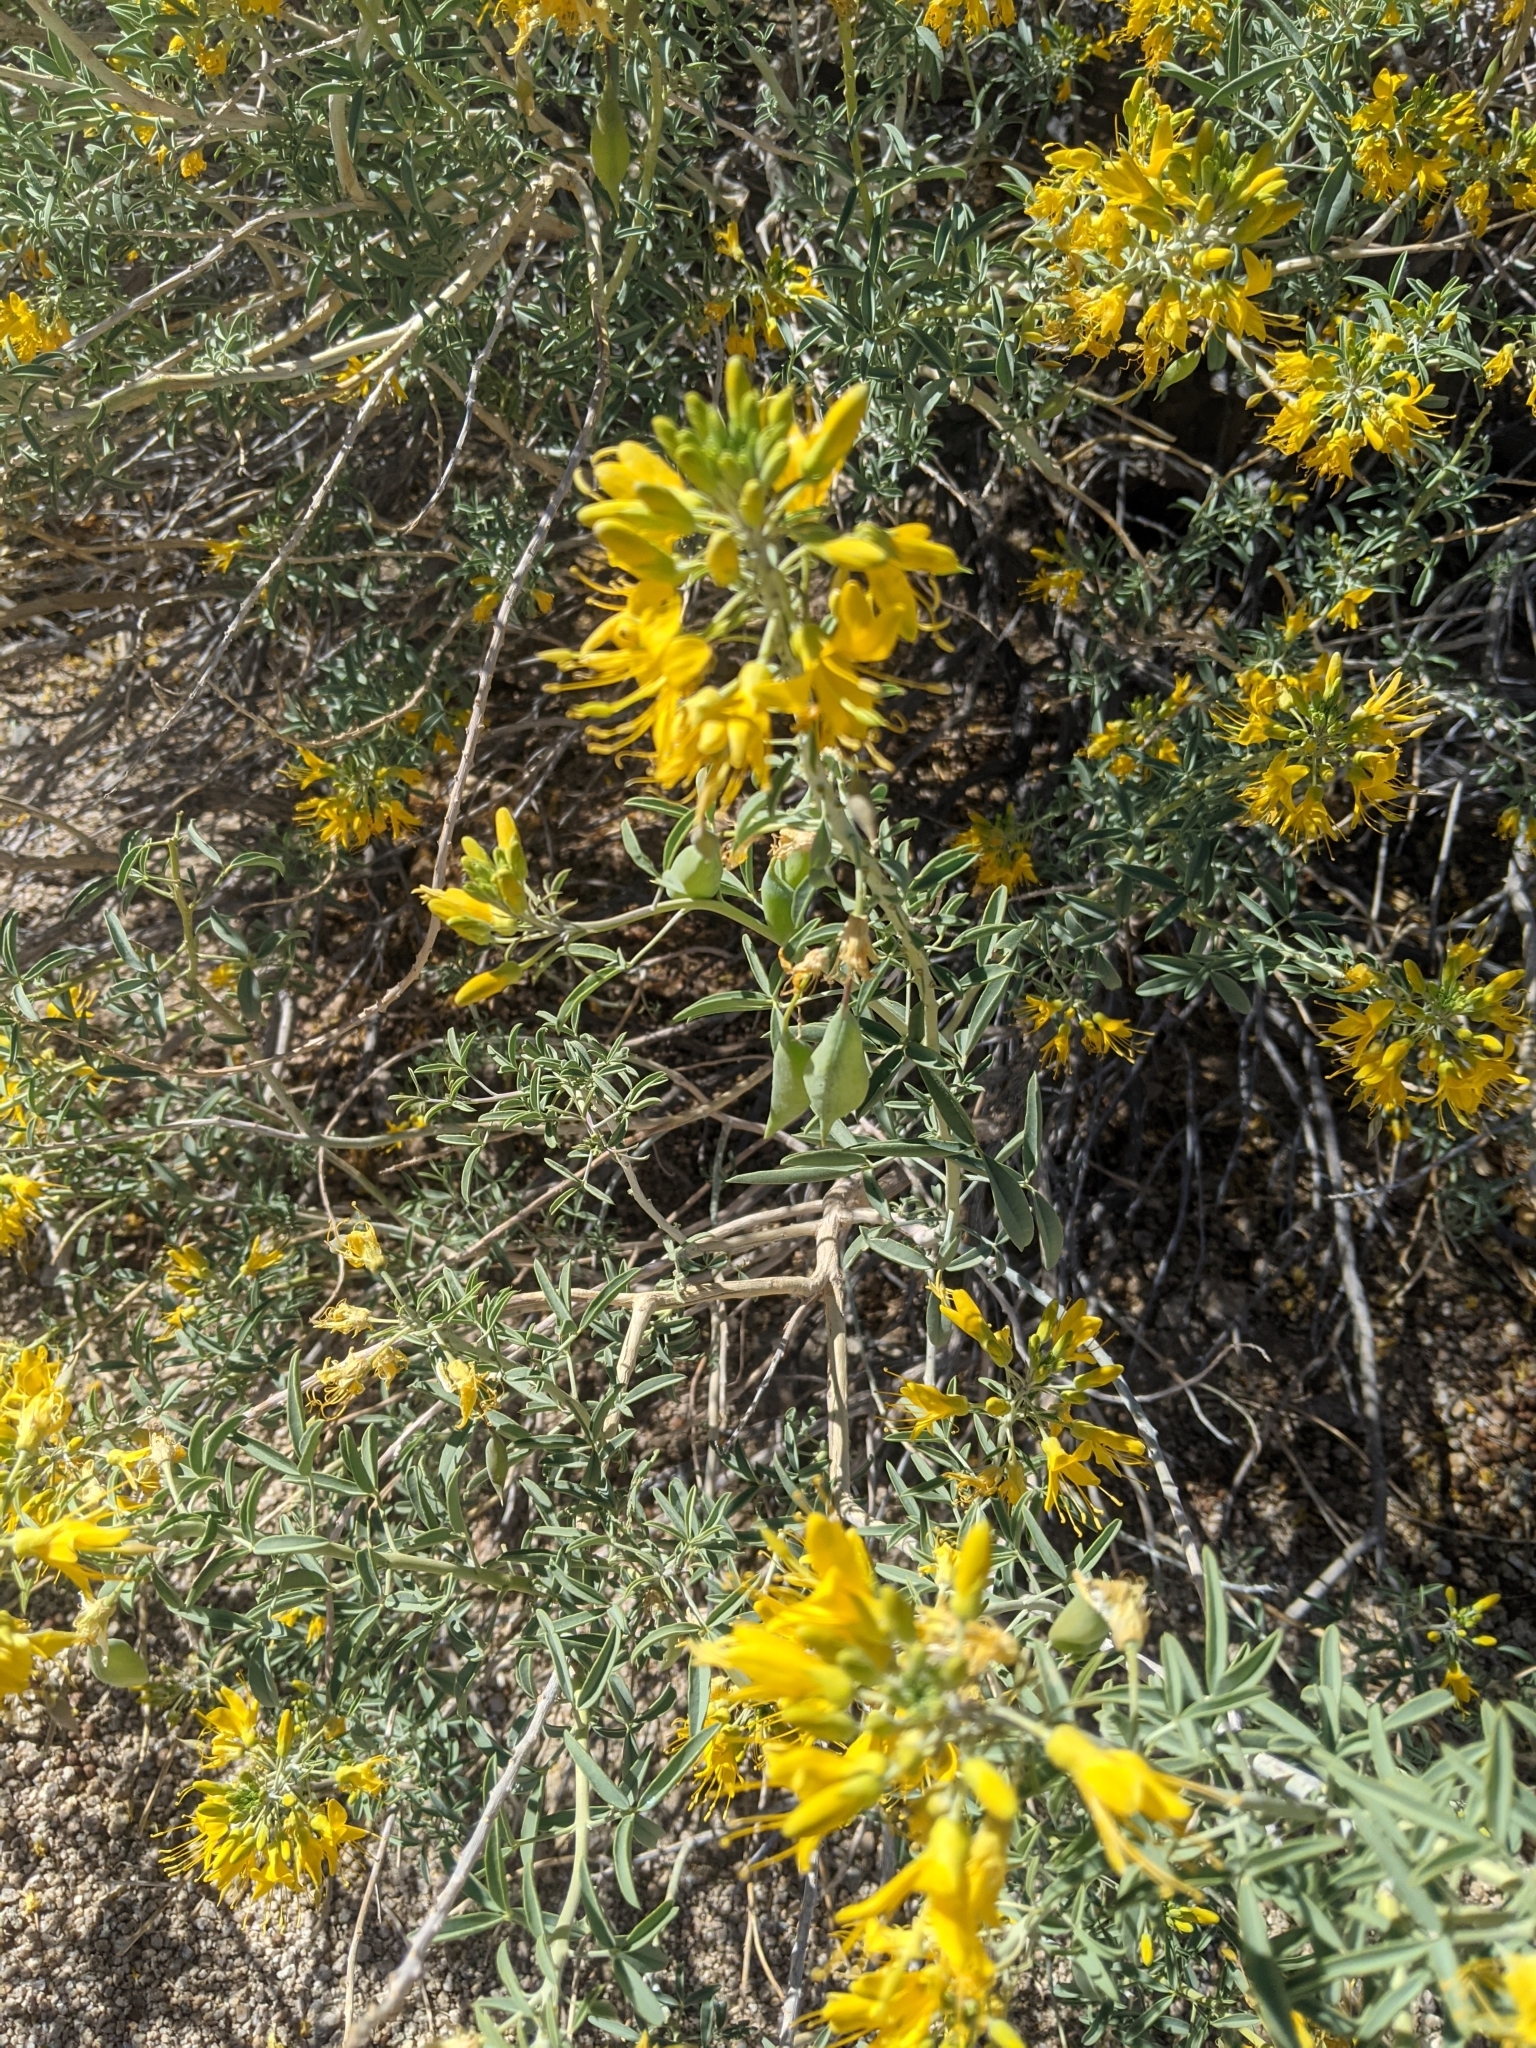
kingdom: Plantae
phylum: Tracheophyta
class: Magnoliopsida
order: Brassicales
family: Cleomaceae
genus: Cleomella
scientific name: Cleomella arborea
